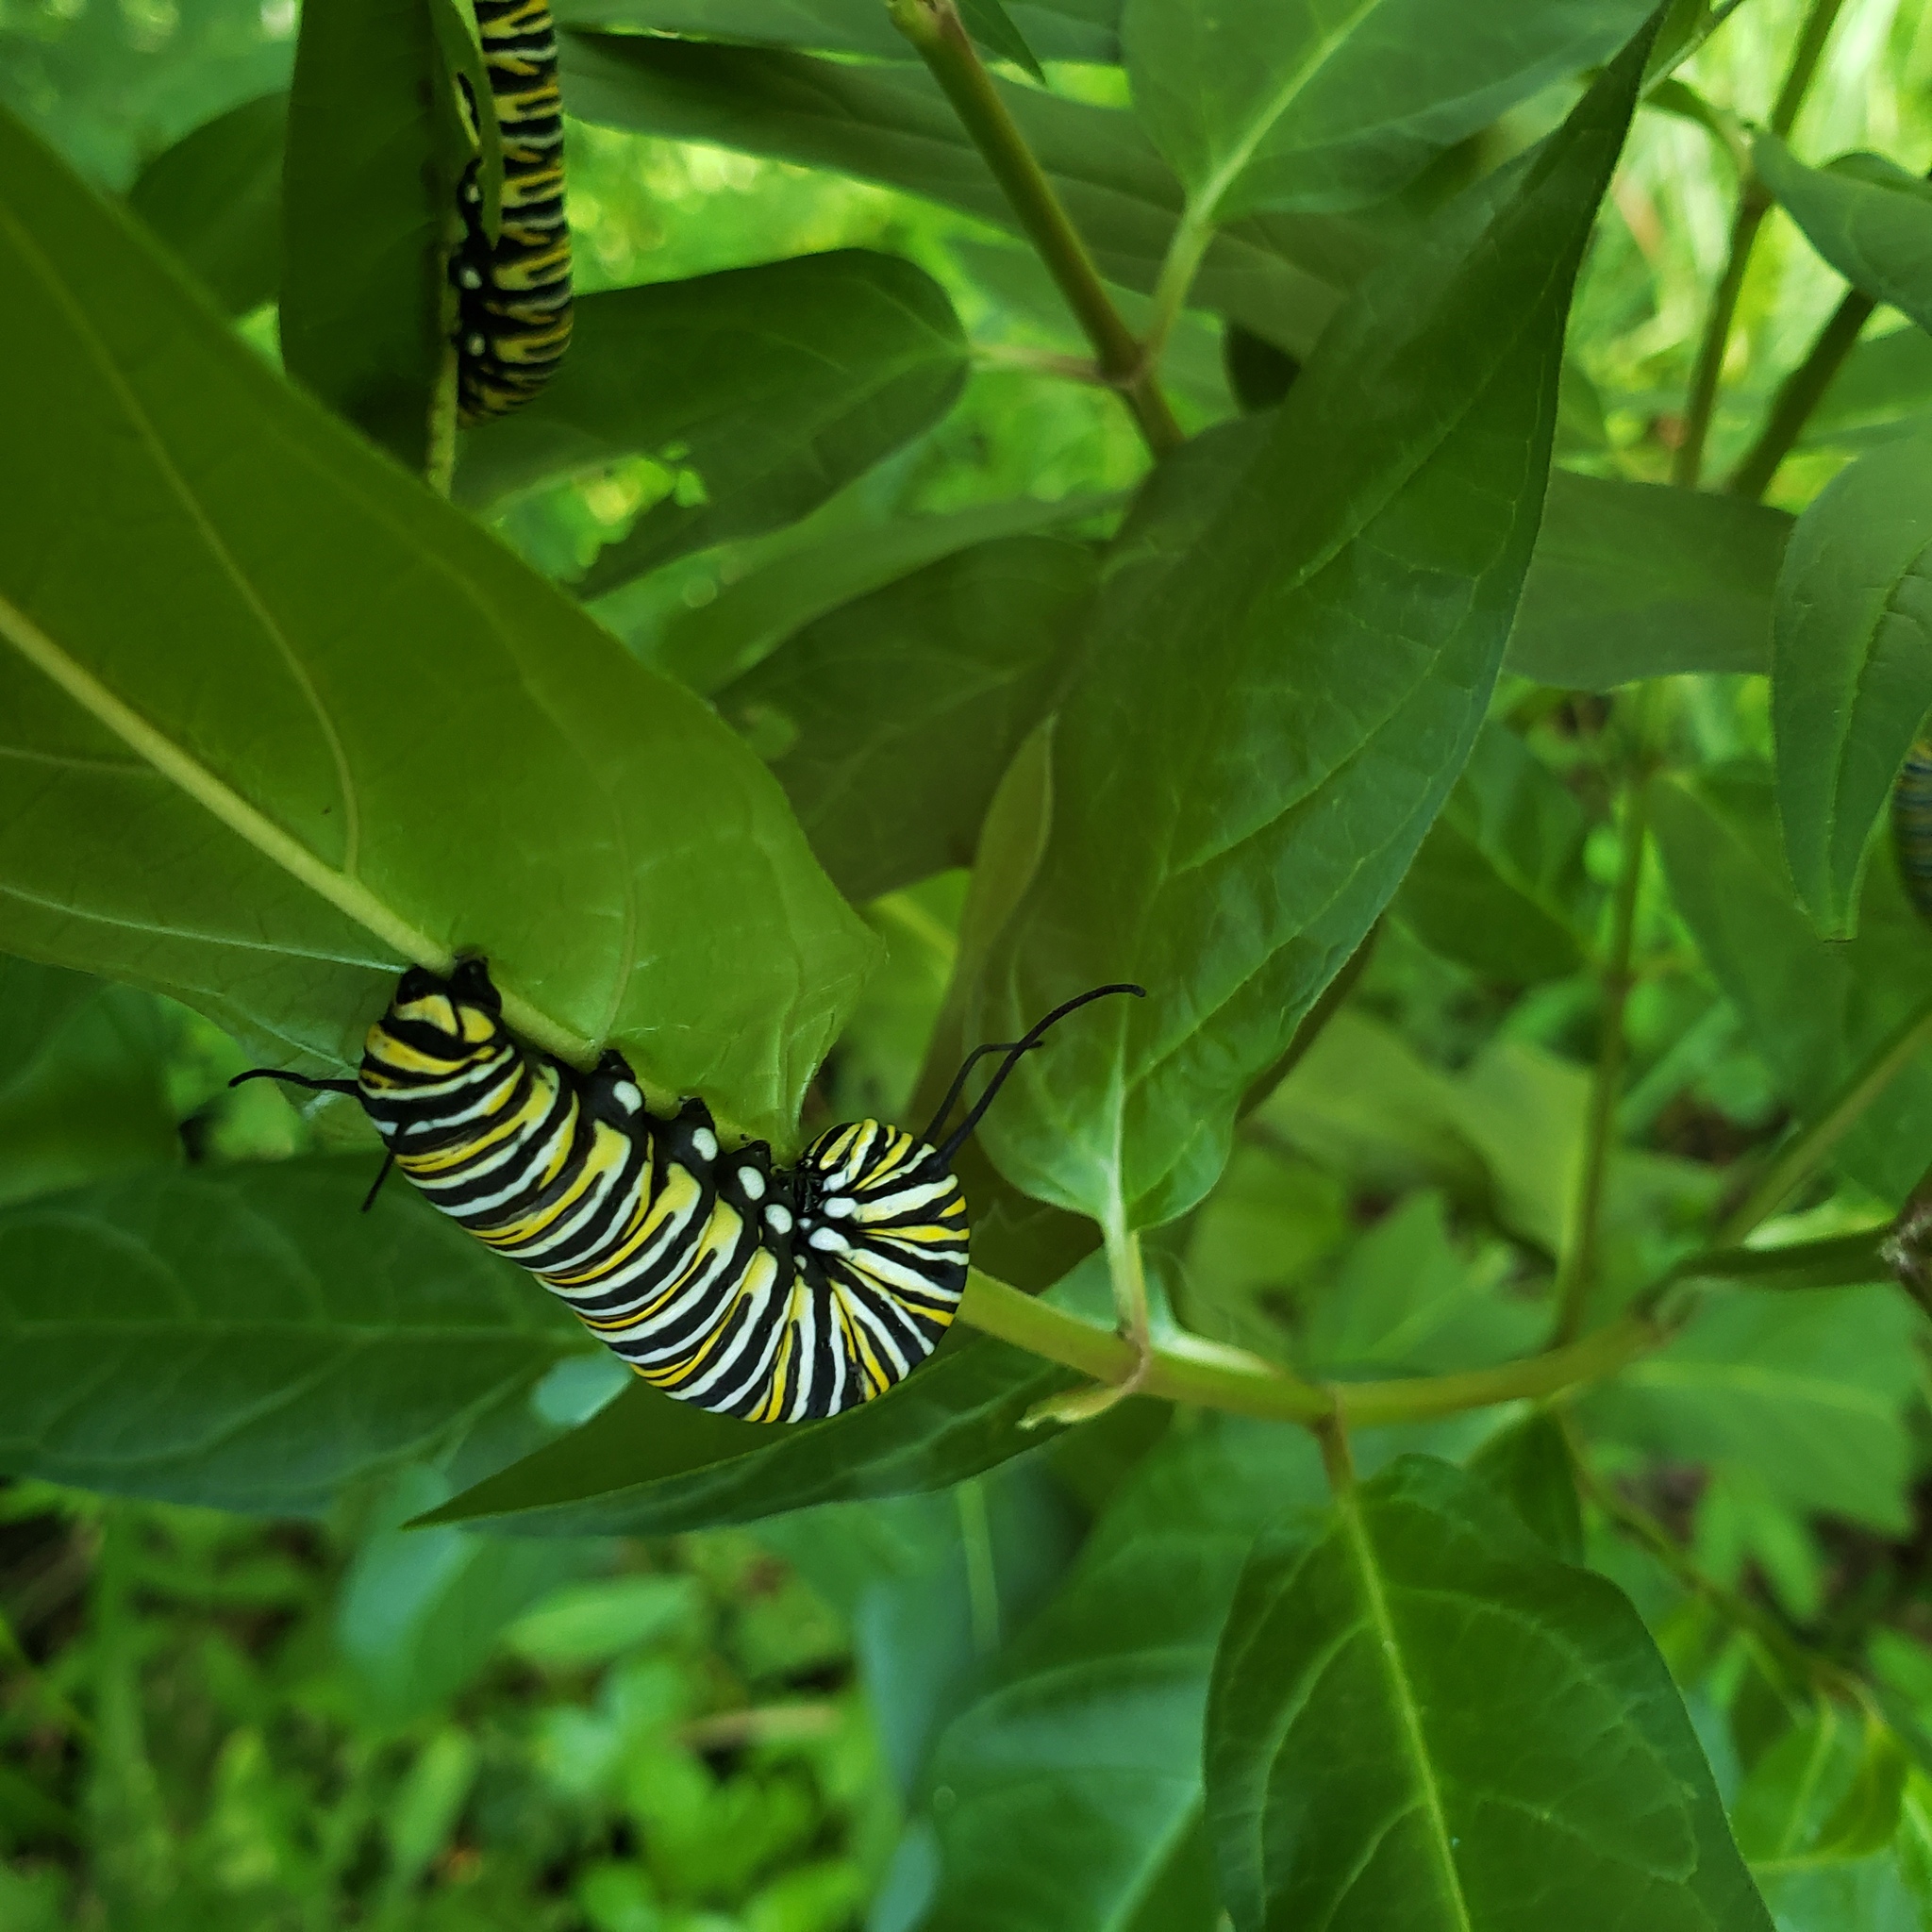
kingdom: Animalia
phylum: Arthropoda
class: Insecta
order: Lepidoptera
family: Nymphalidae
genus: Danaus
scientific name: Danaus plexippus
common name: Monarch
